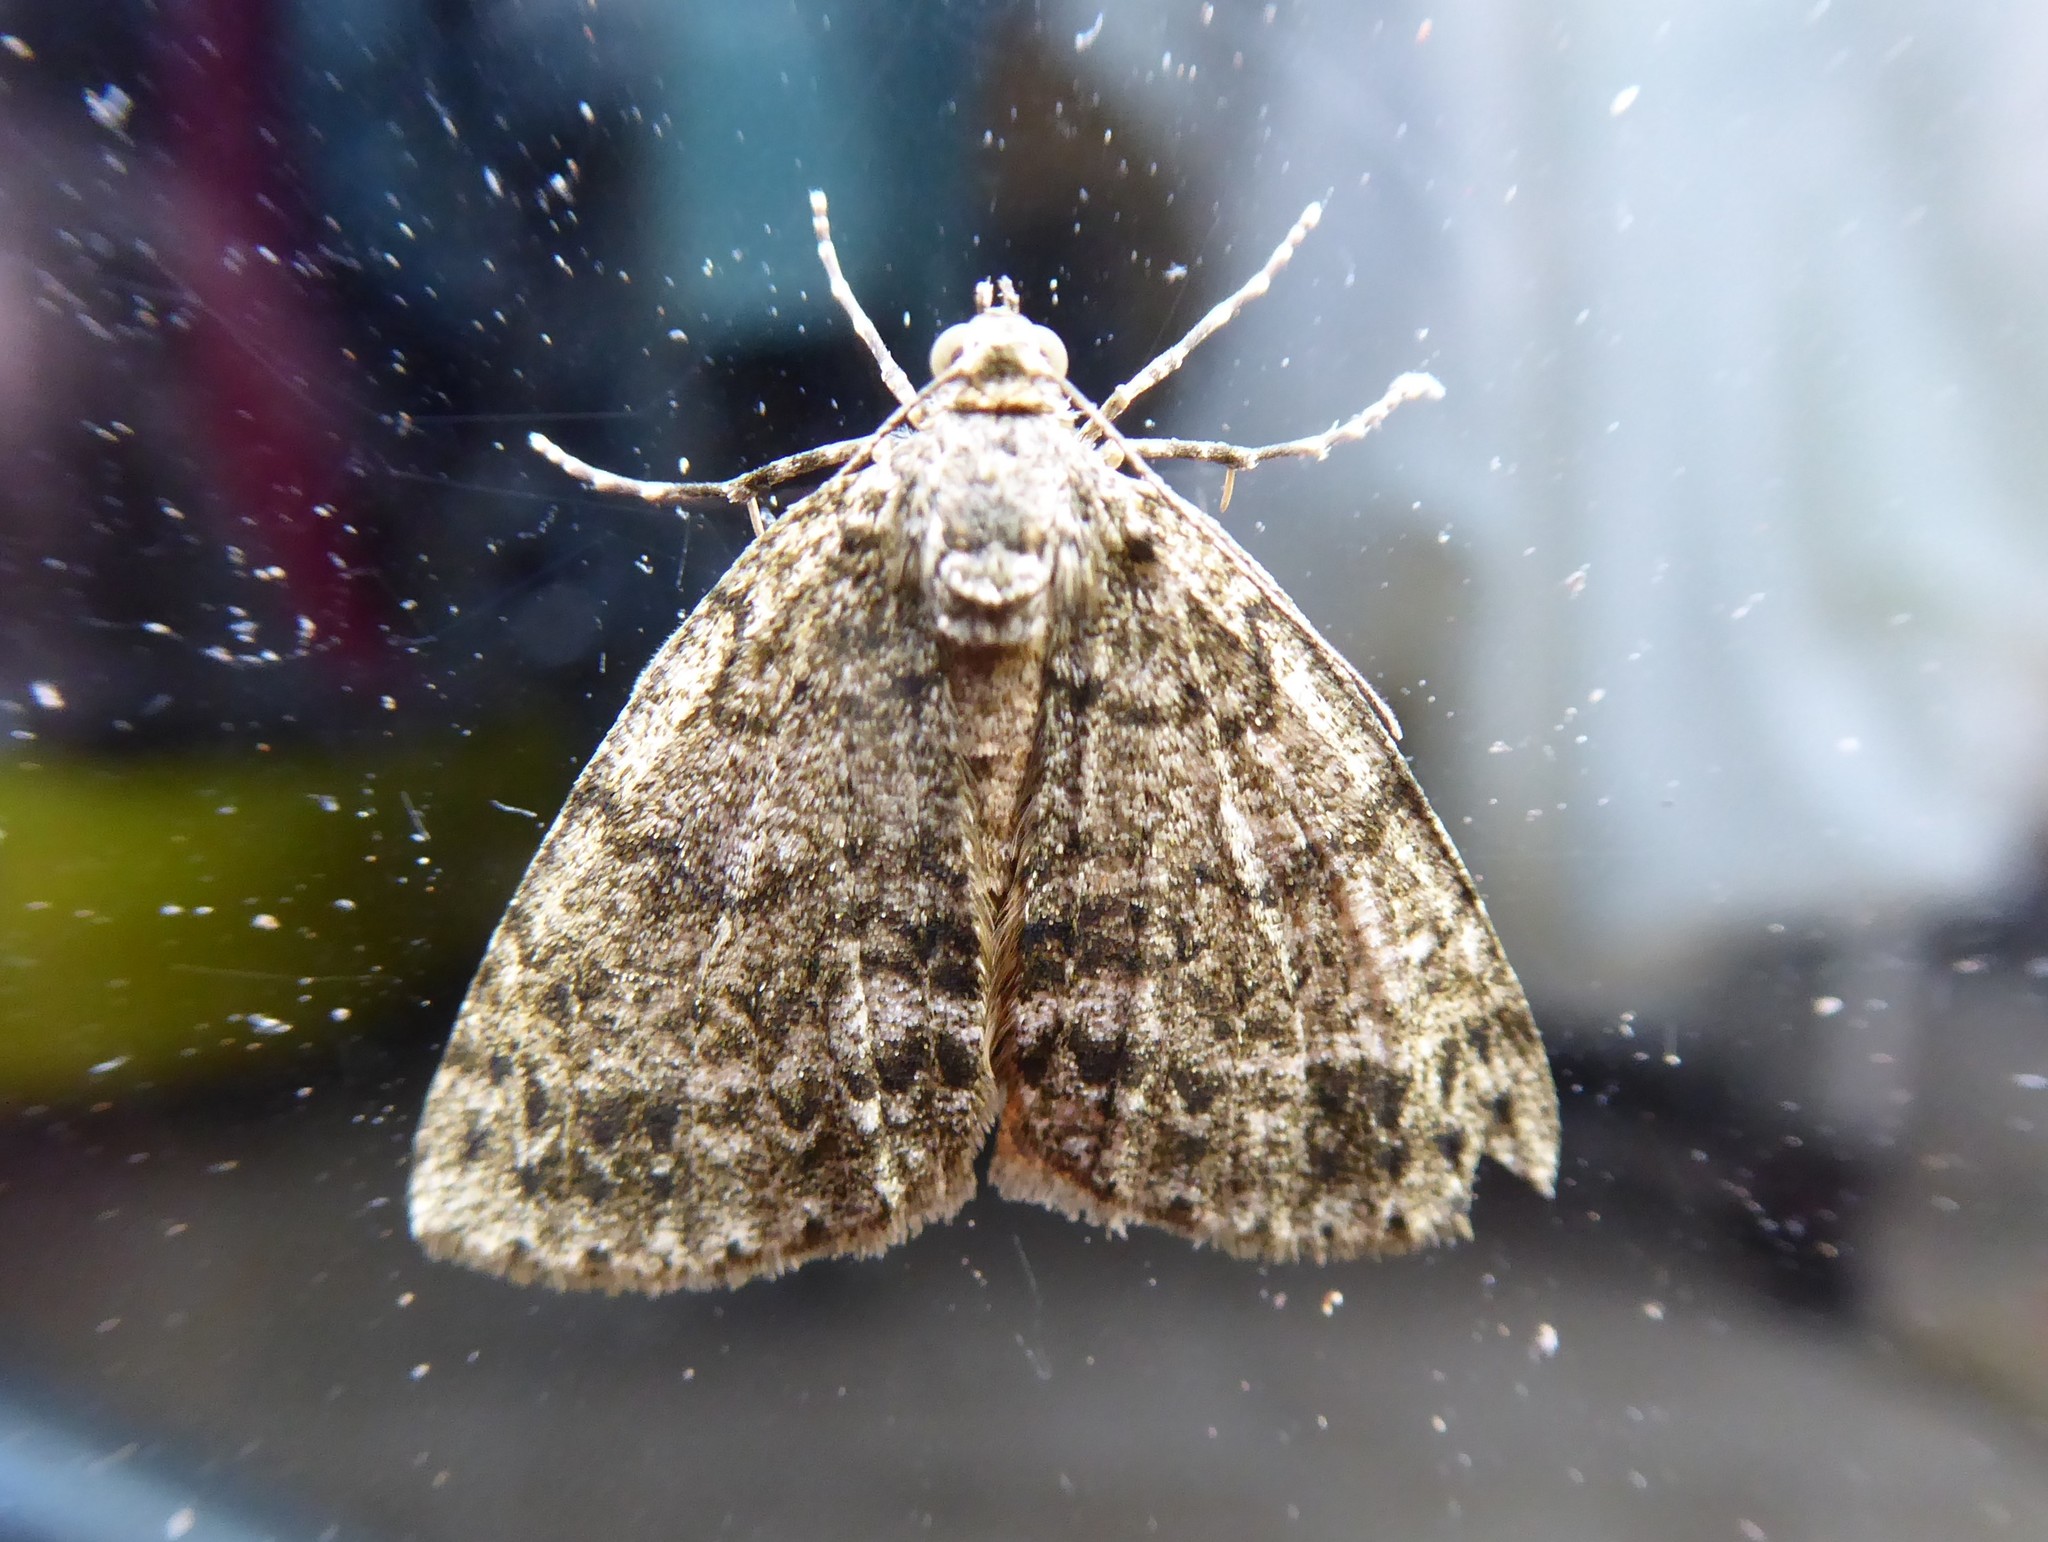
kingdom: Animalia
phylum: Arthropoda
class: Insecta
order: Lepidoptera
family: Geometridae
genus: Pseudocoremia
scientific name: Pseudocoremia indistincta
